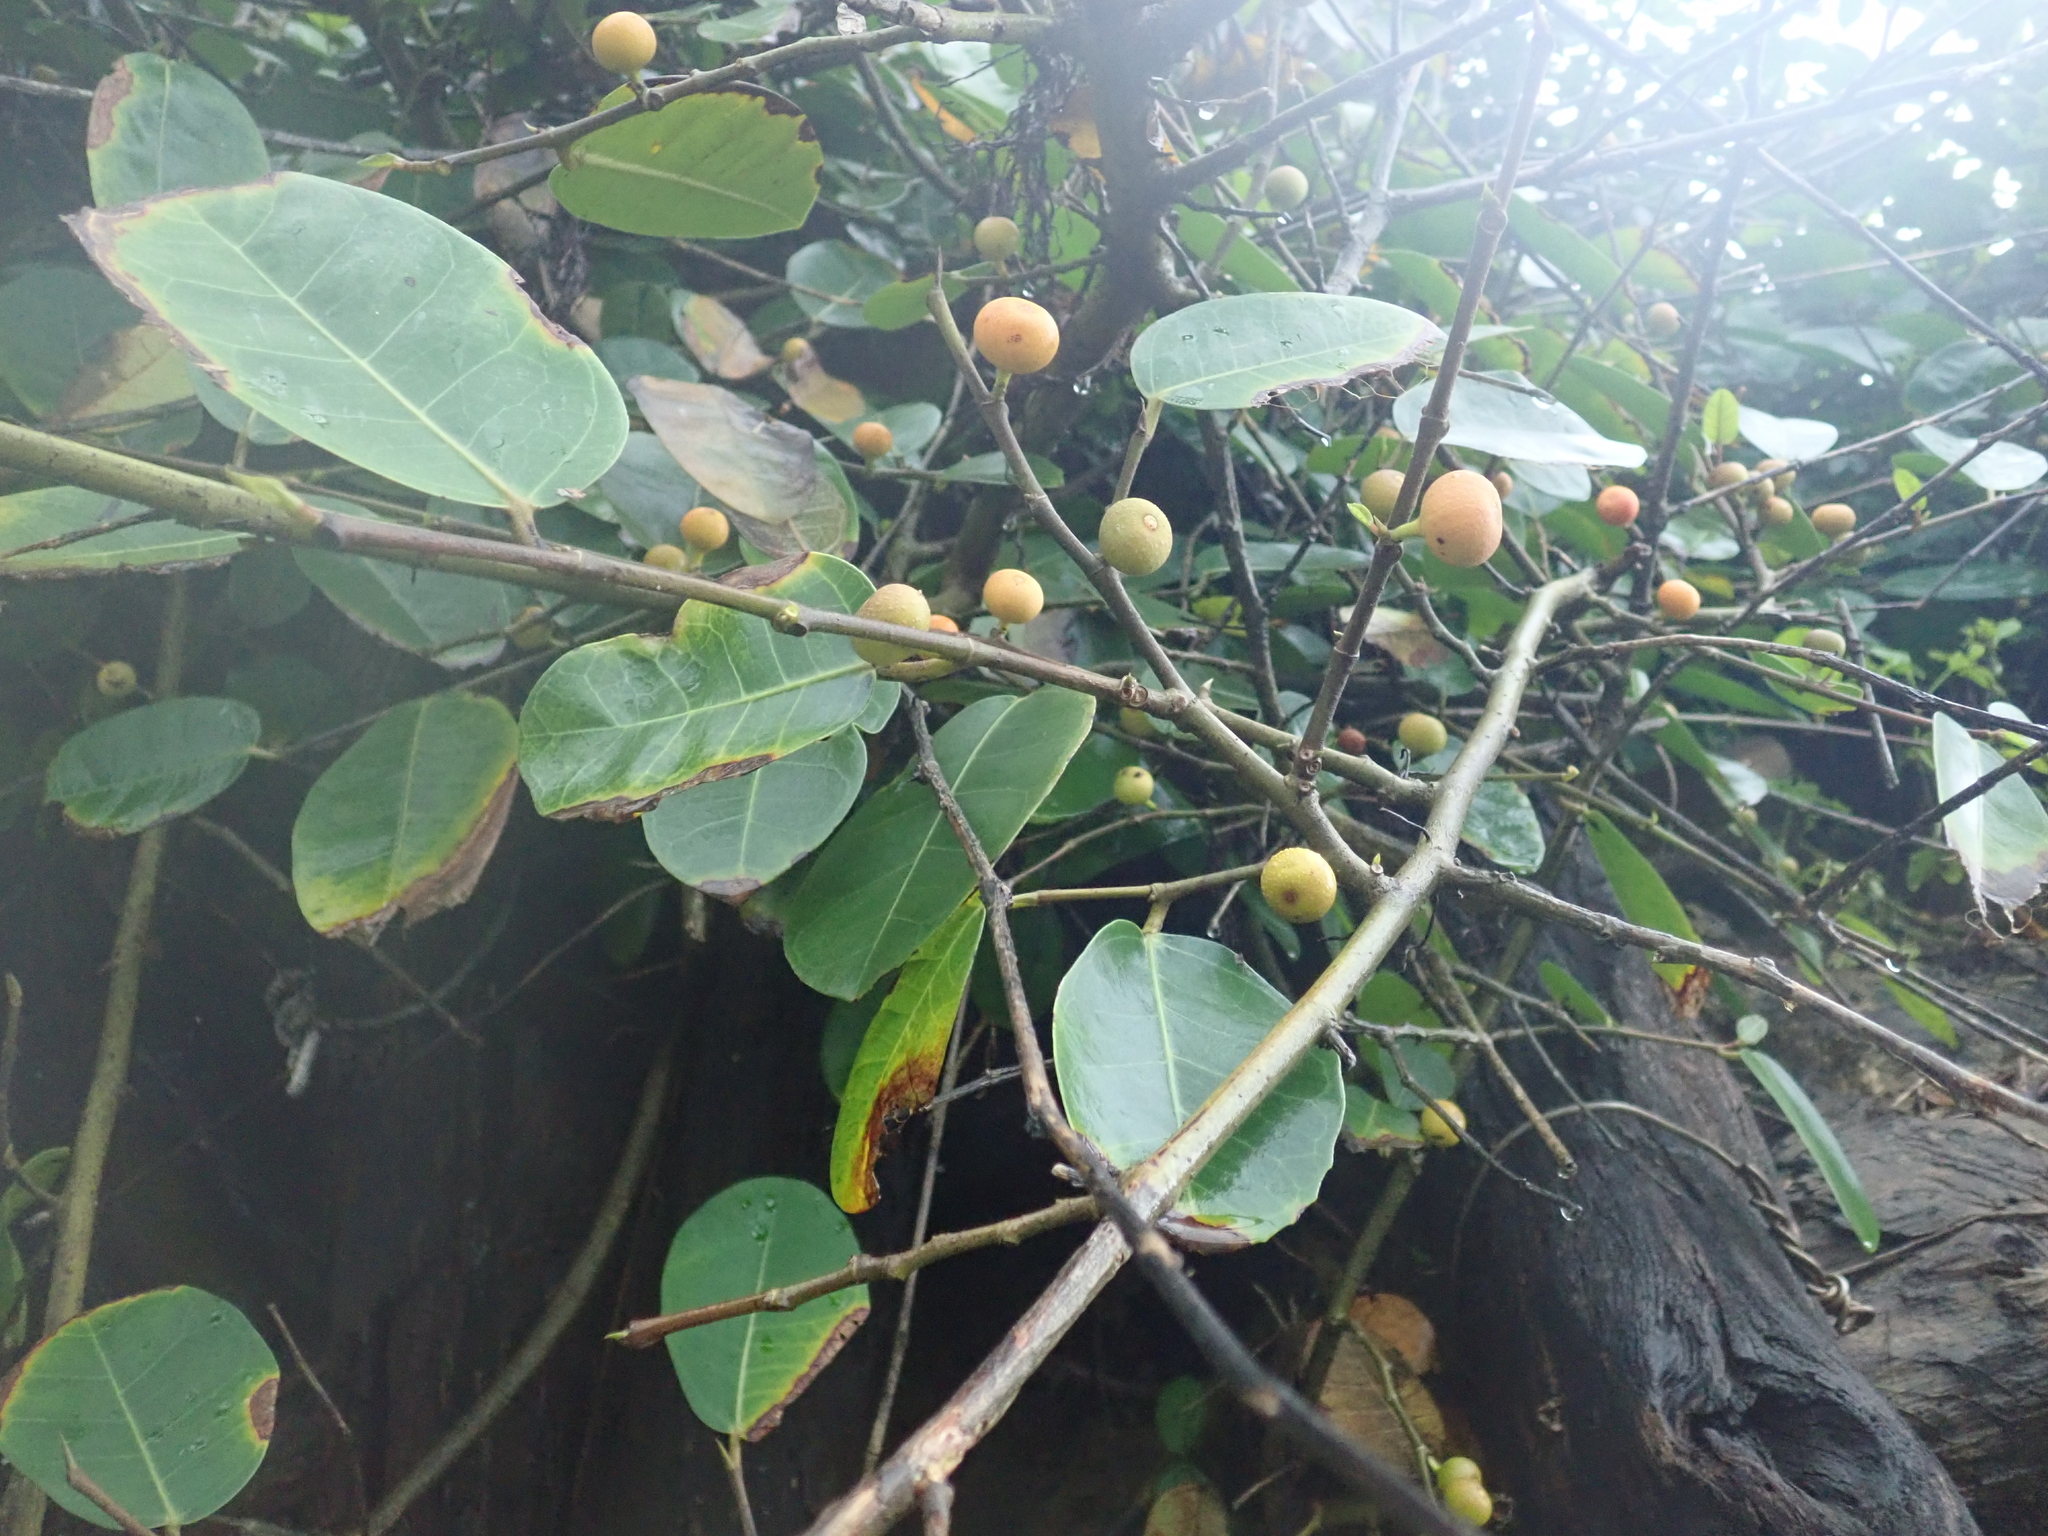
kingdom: Plantae
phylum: Tracheophyta
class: Magnoliopsida
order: Rosales
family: Moraceae
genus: Ficus
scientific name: Ficus tinctoria
